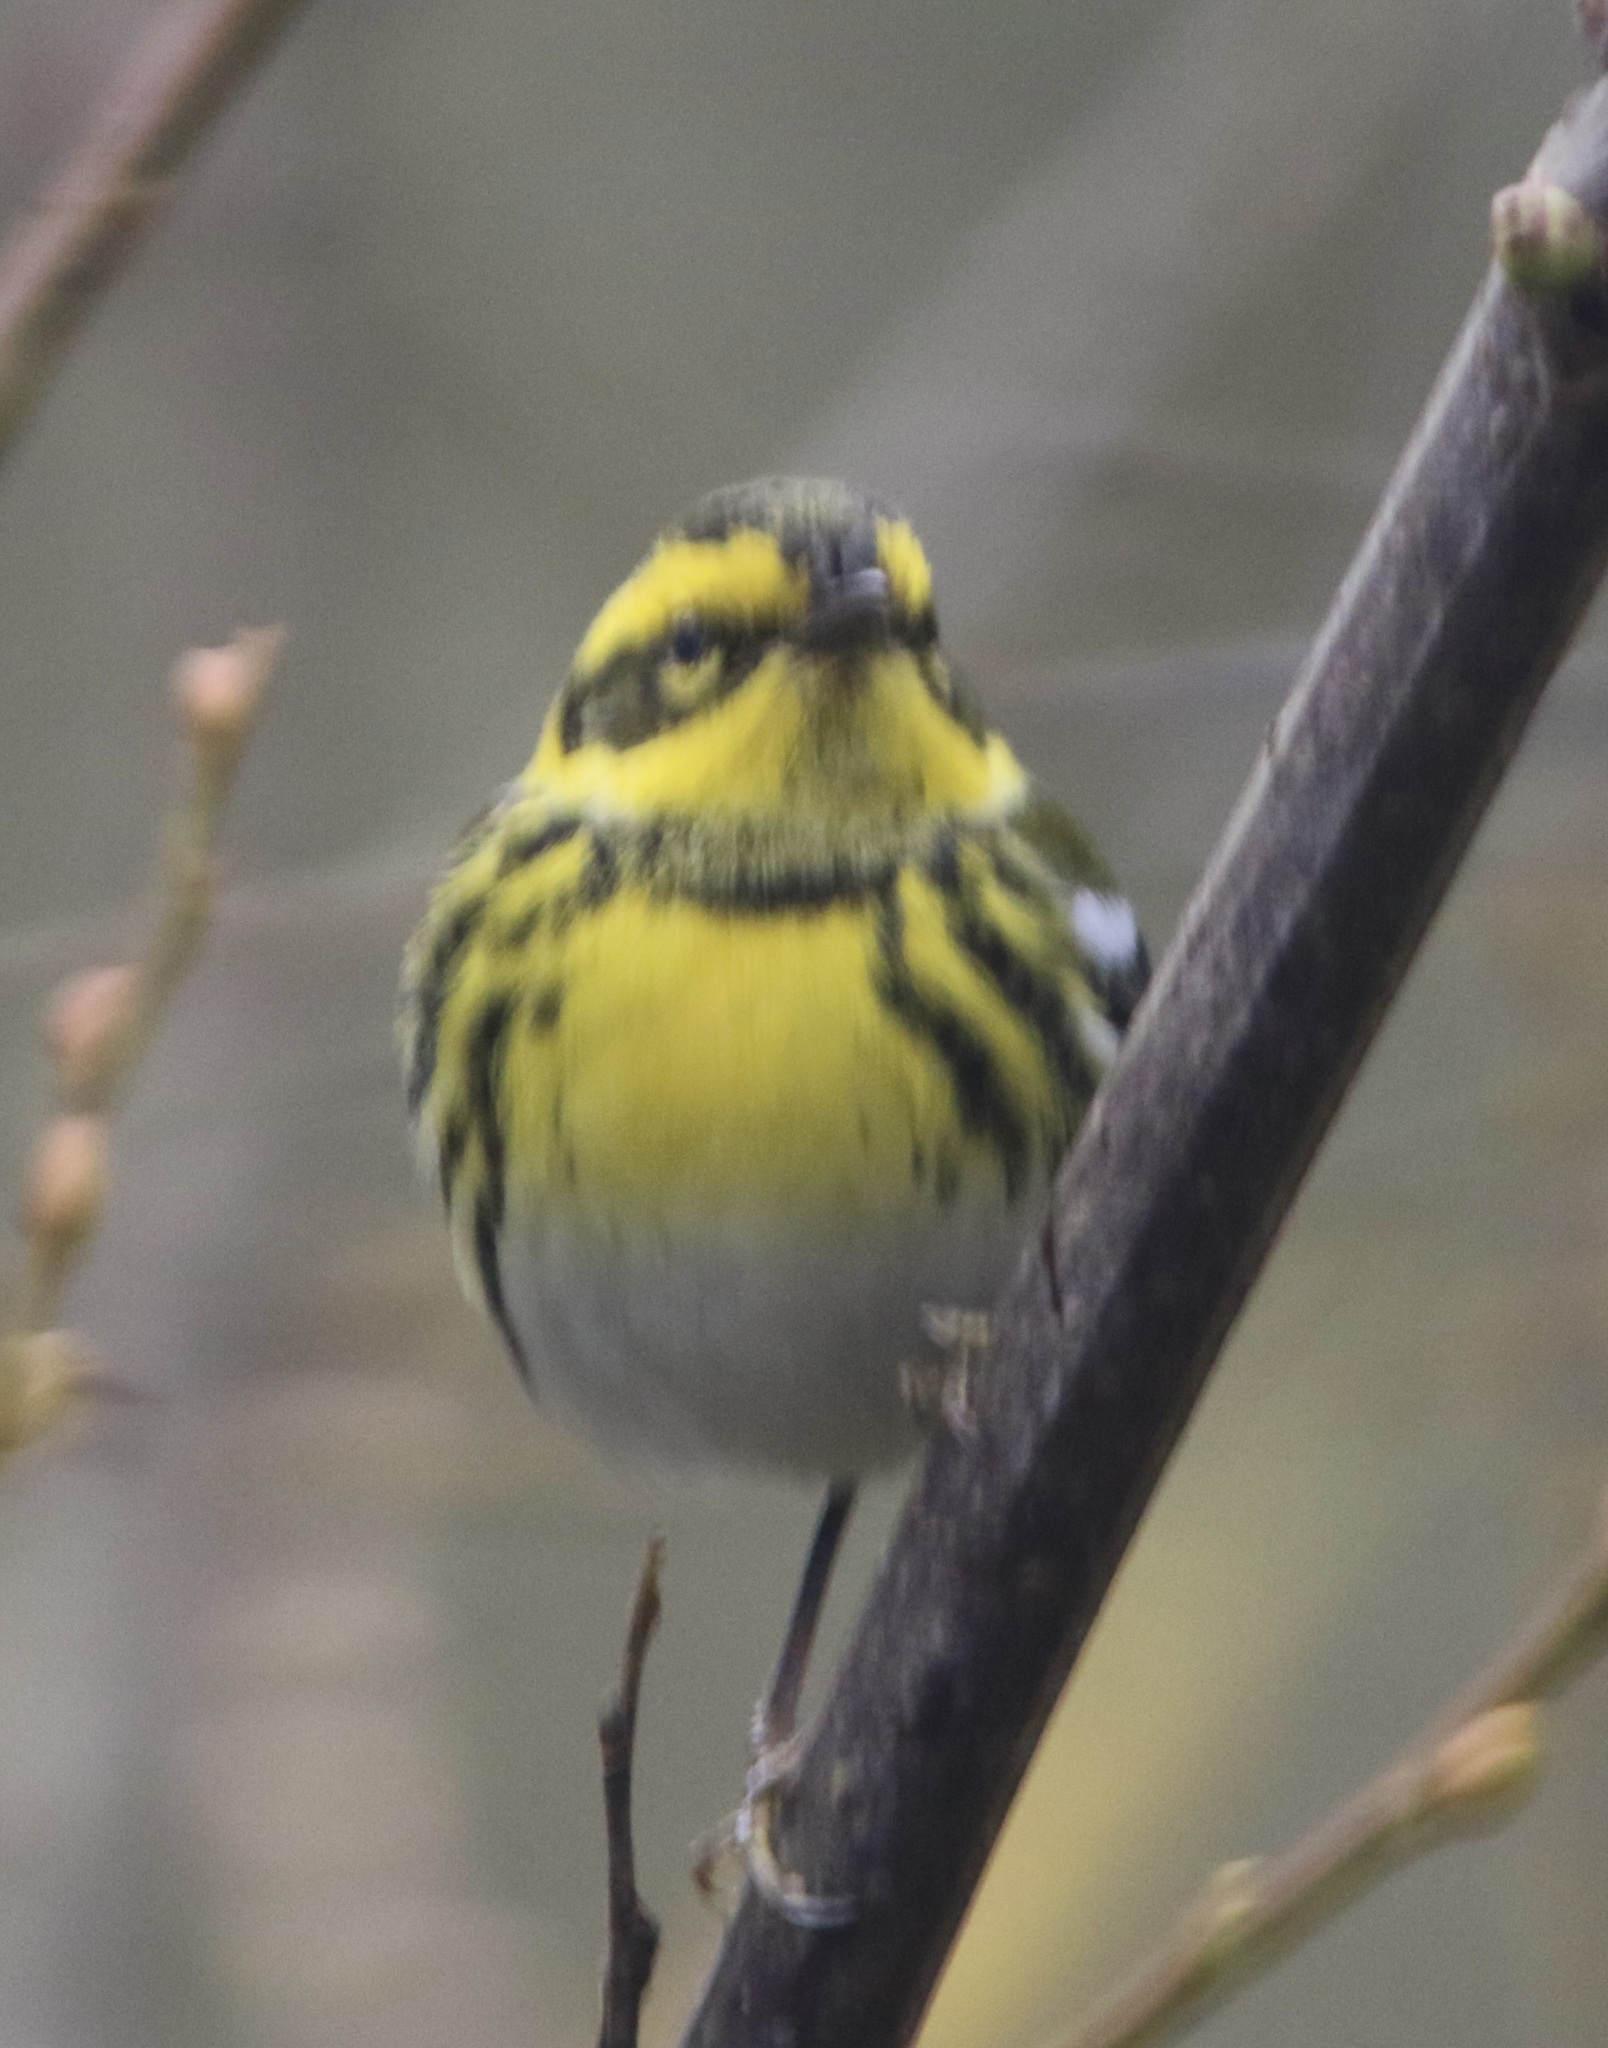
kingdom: Animalia
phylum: Chordata
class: Aves
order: Passeriformes
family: Parulidae
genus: Setophaga
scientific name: Setophaga townsendi
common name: Townsend's warbler
